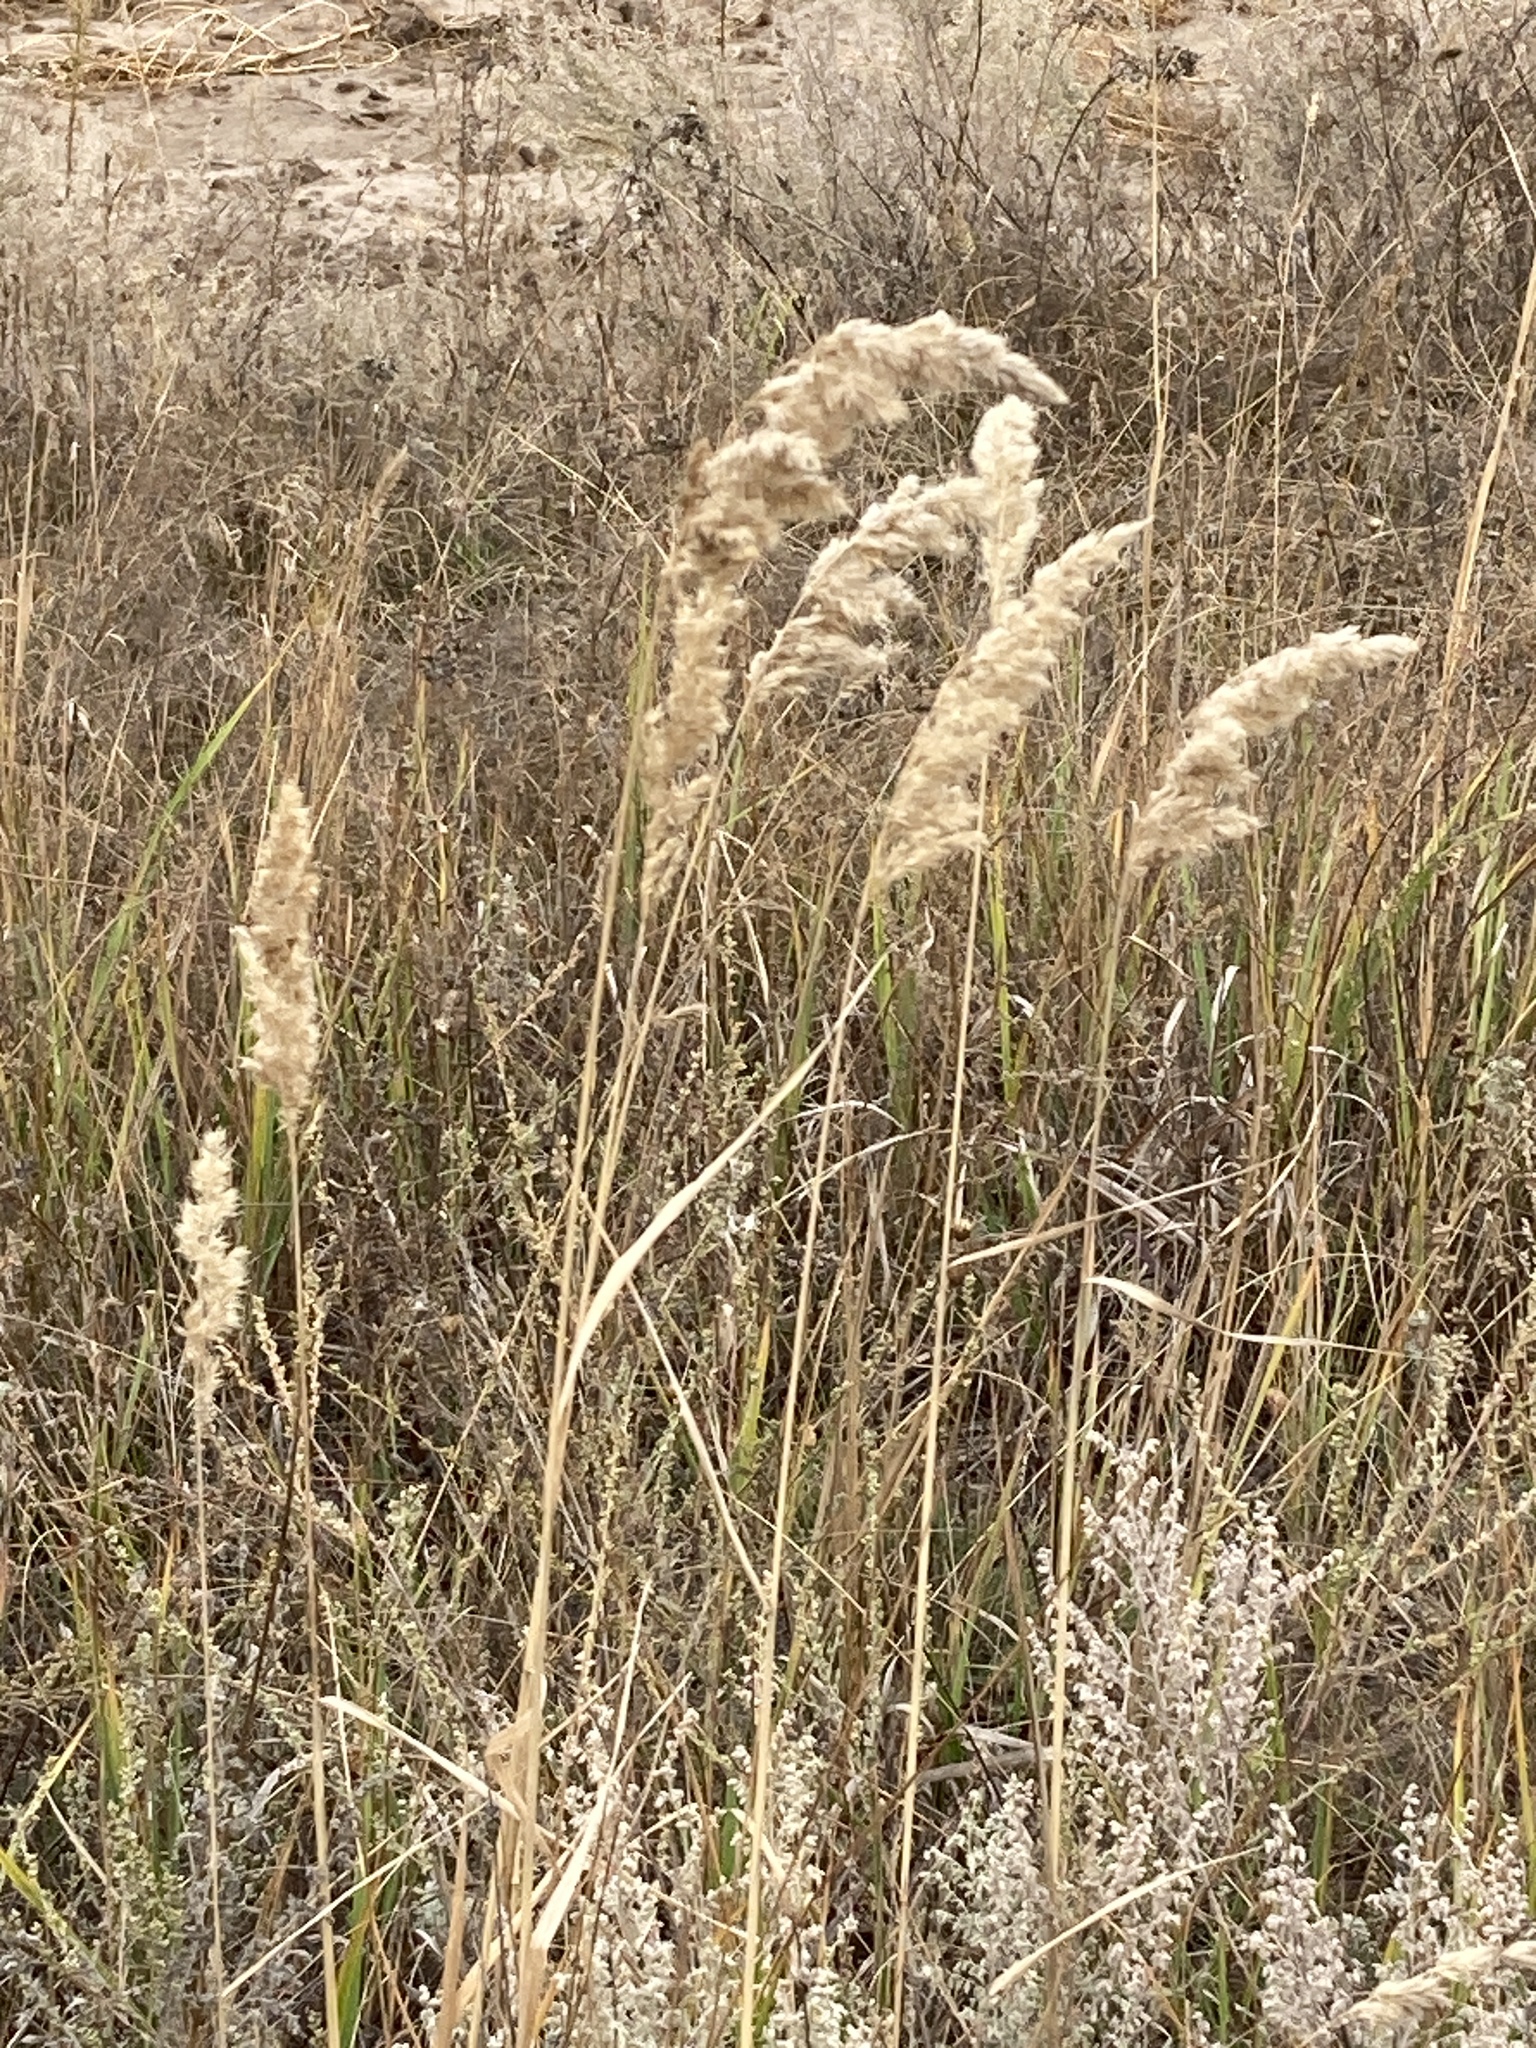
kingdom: Plantae
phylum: Tracheophyta
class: Liliopsida
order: Poales
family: Poaceae
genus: Calamagrostis
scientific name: Calamagrostis epigejos
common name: Wood small-reed
